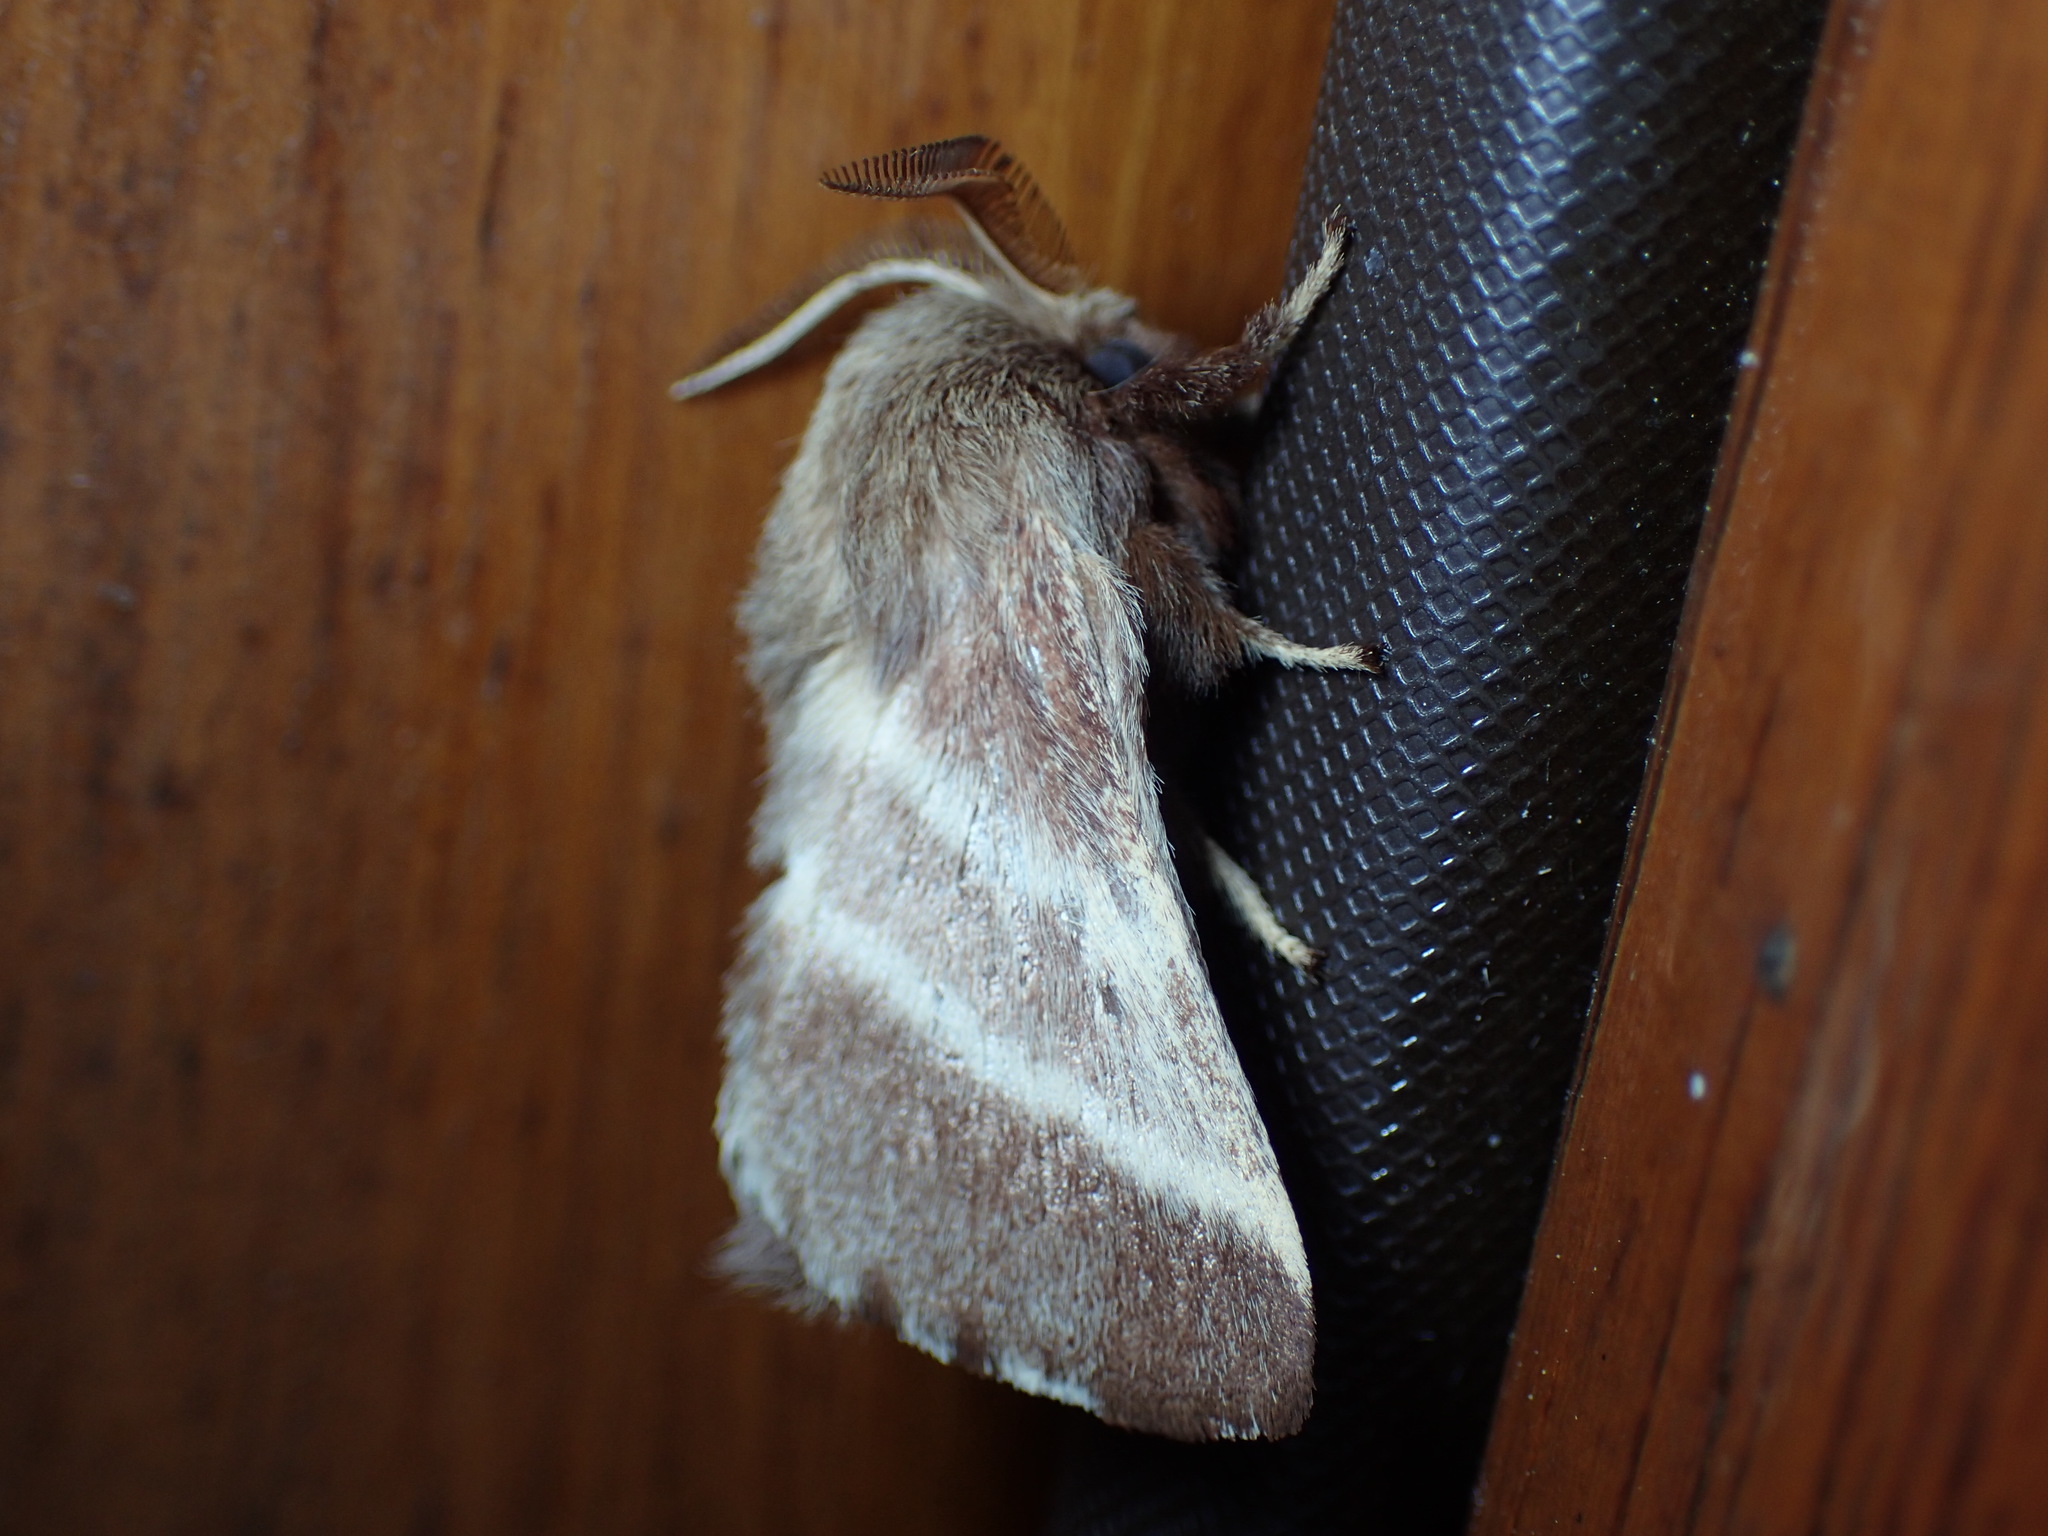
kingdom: Animalia
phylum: Arthropoda
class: Insecta
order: Lepidoptera
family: Lasiocampidae
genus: Malacosoma
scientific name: Malacosoma americana
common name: Eastern tent caterpillar moth
